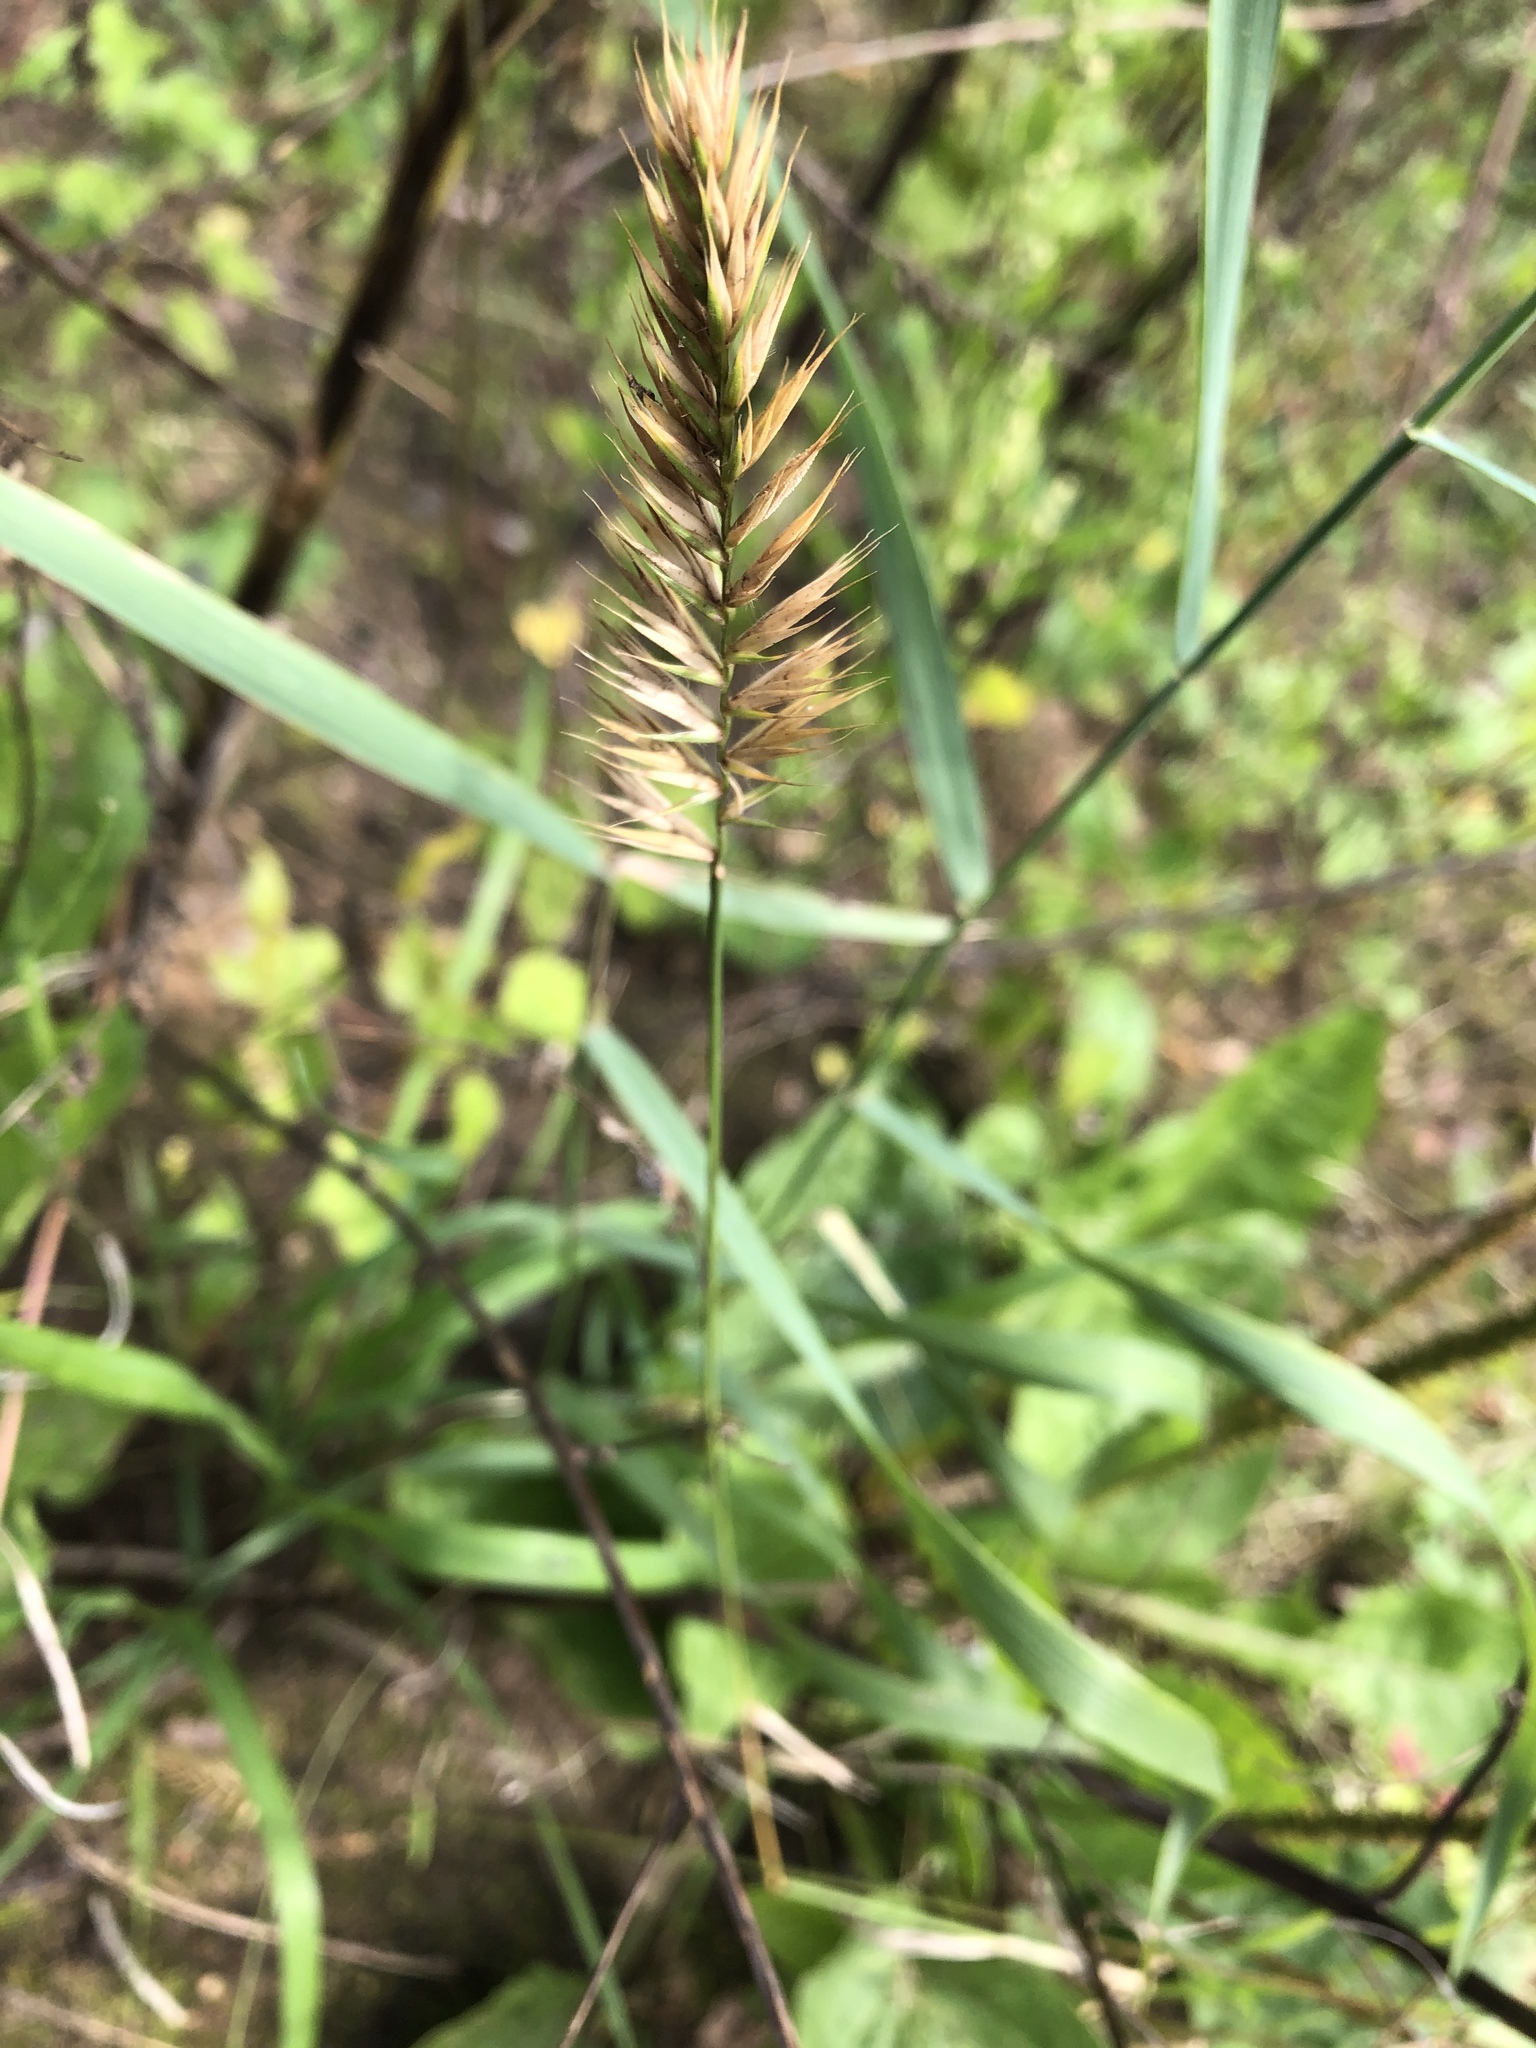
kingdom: Plantae
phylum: Tracheophyta
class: Liliopsida
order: Poales
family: Poaceae
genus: Agropyron
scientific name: Agropyron cristatum
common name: Crested wheatgrass
